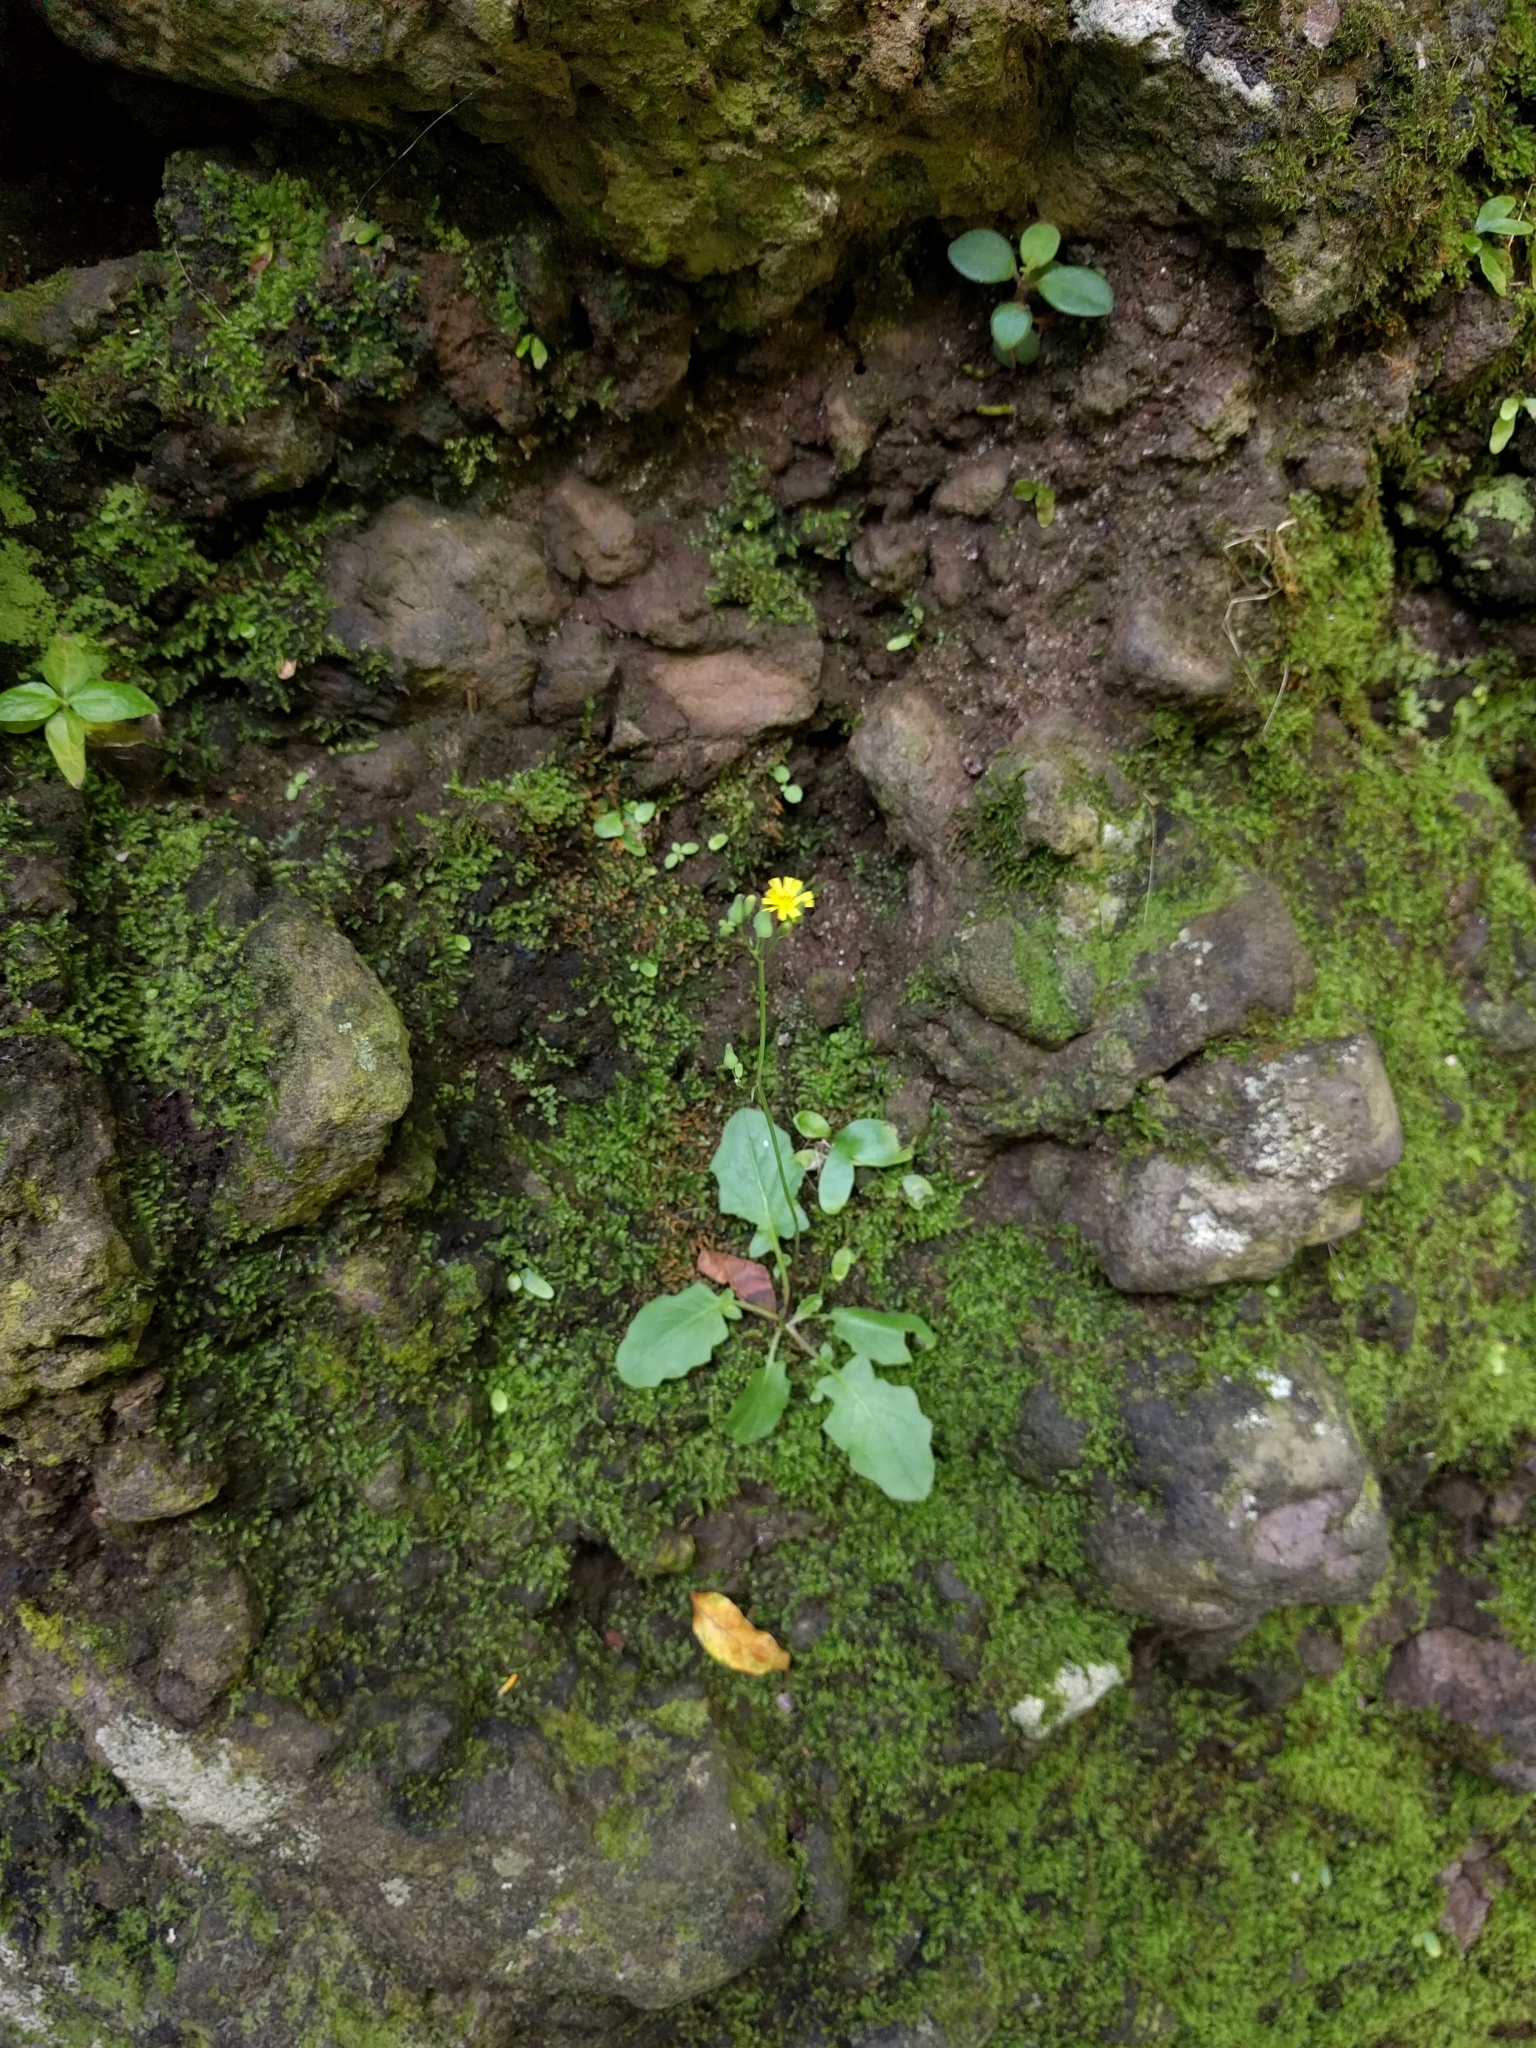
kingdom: Plantae
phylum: Tracheophyta
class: Magnoliopsida
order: Asterales
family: Asteraceae
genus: Youngia
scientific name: Youngia japonica
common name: Oriental false hawksbeard
